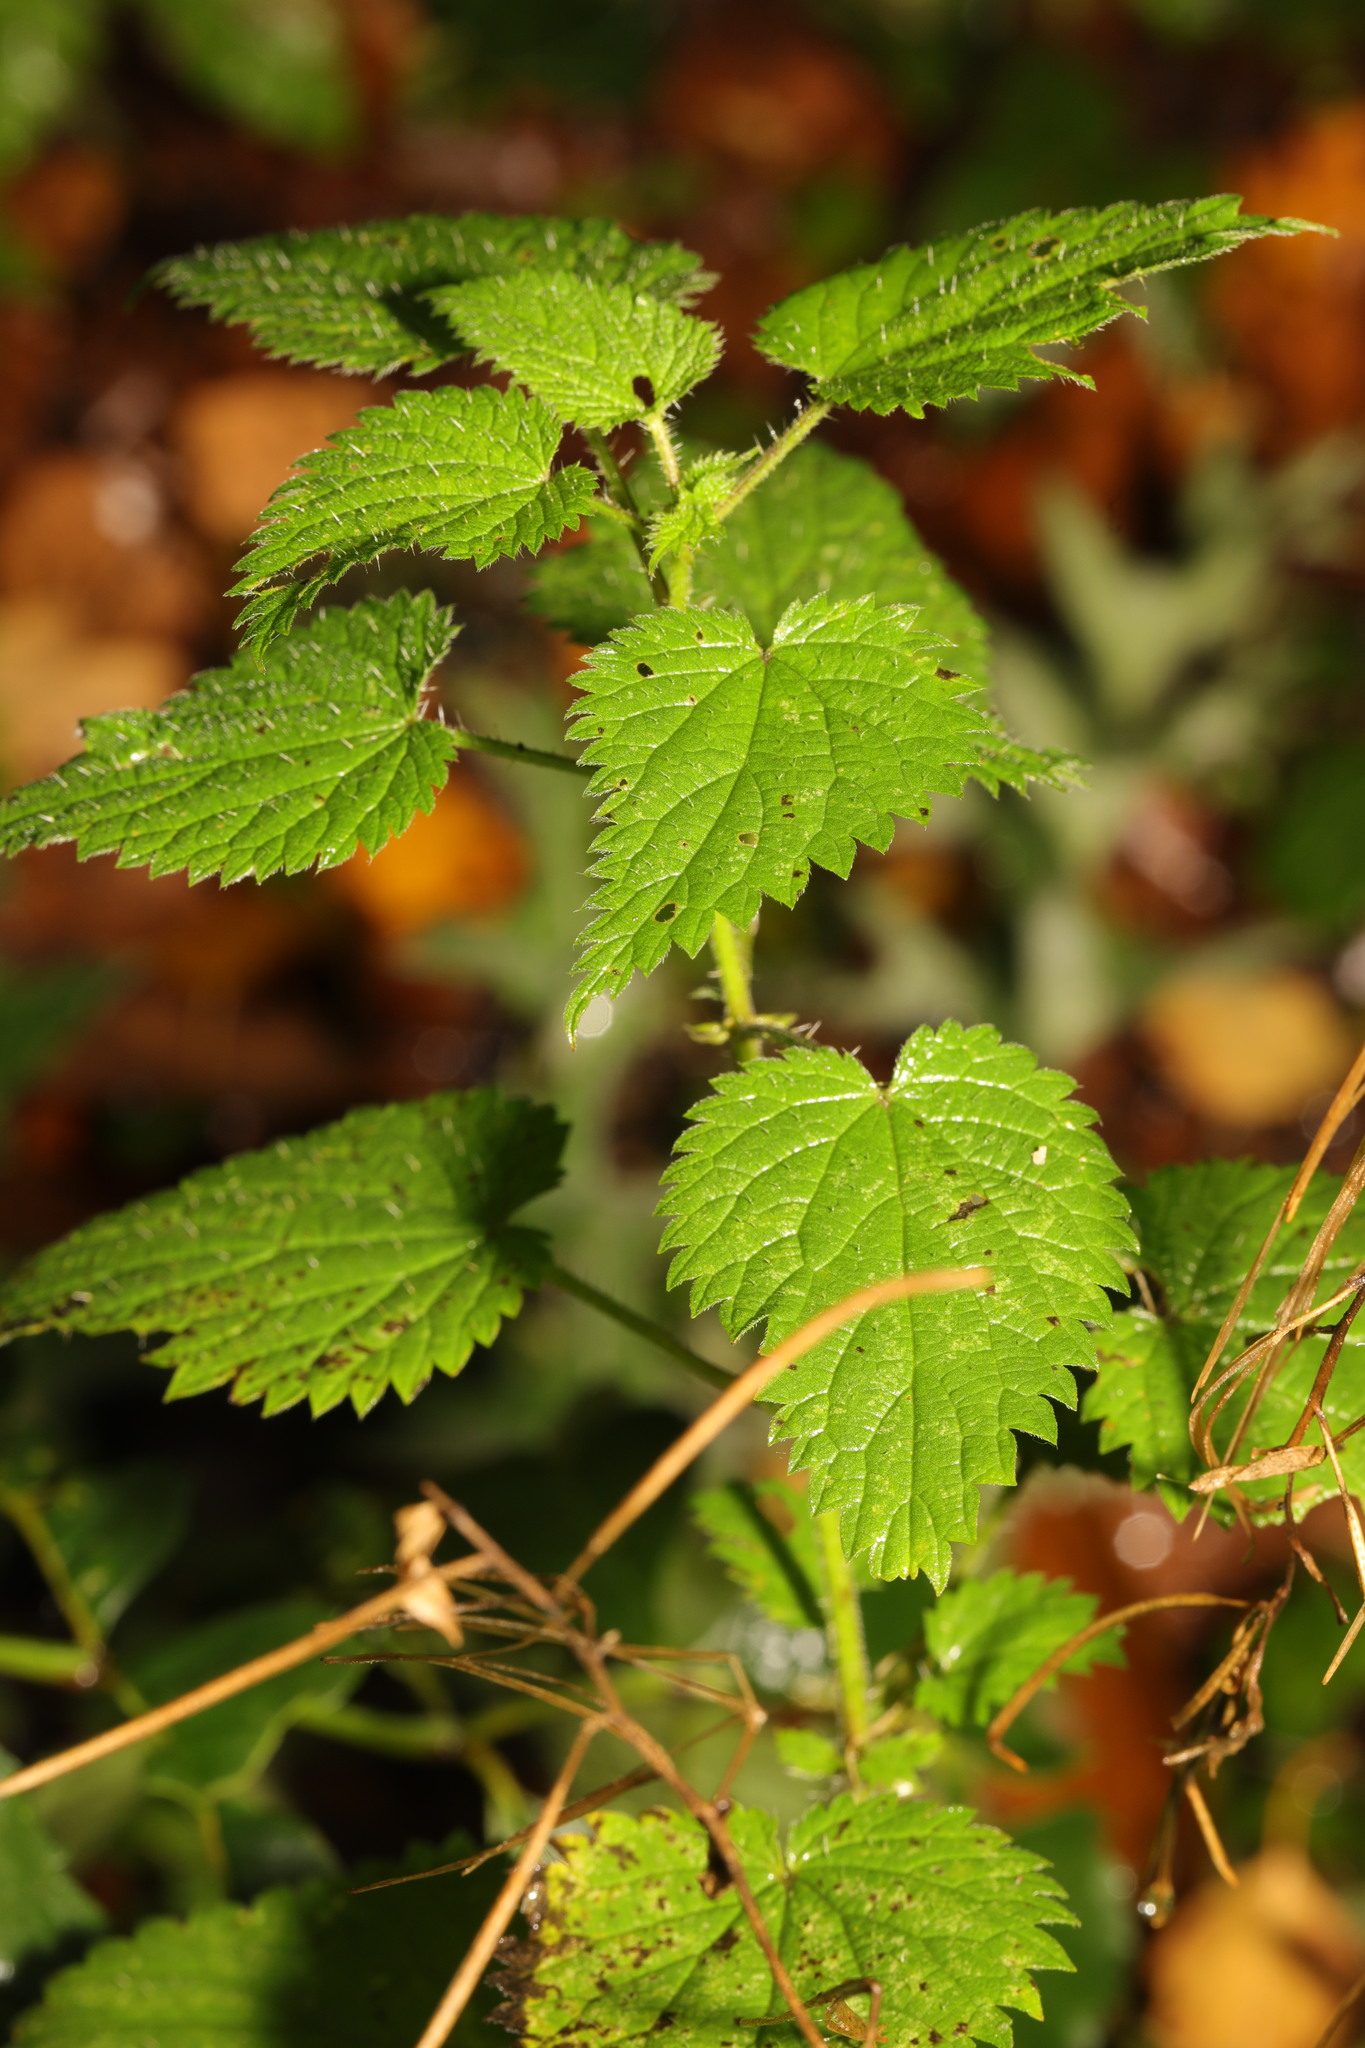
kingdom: Plantae
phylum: Tracheophyta
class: Magnoliopsida
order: Rosales
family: Urticaceae
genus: Urtica
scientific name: Urtica dioica
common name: Common nettle
